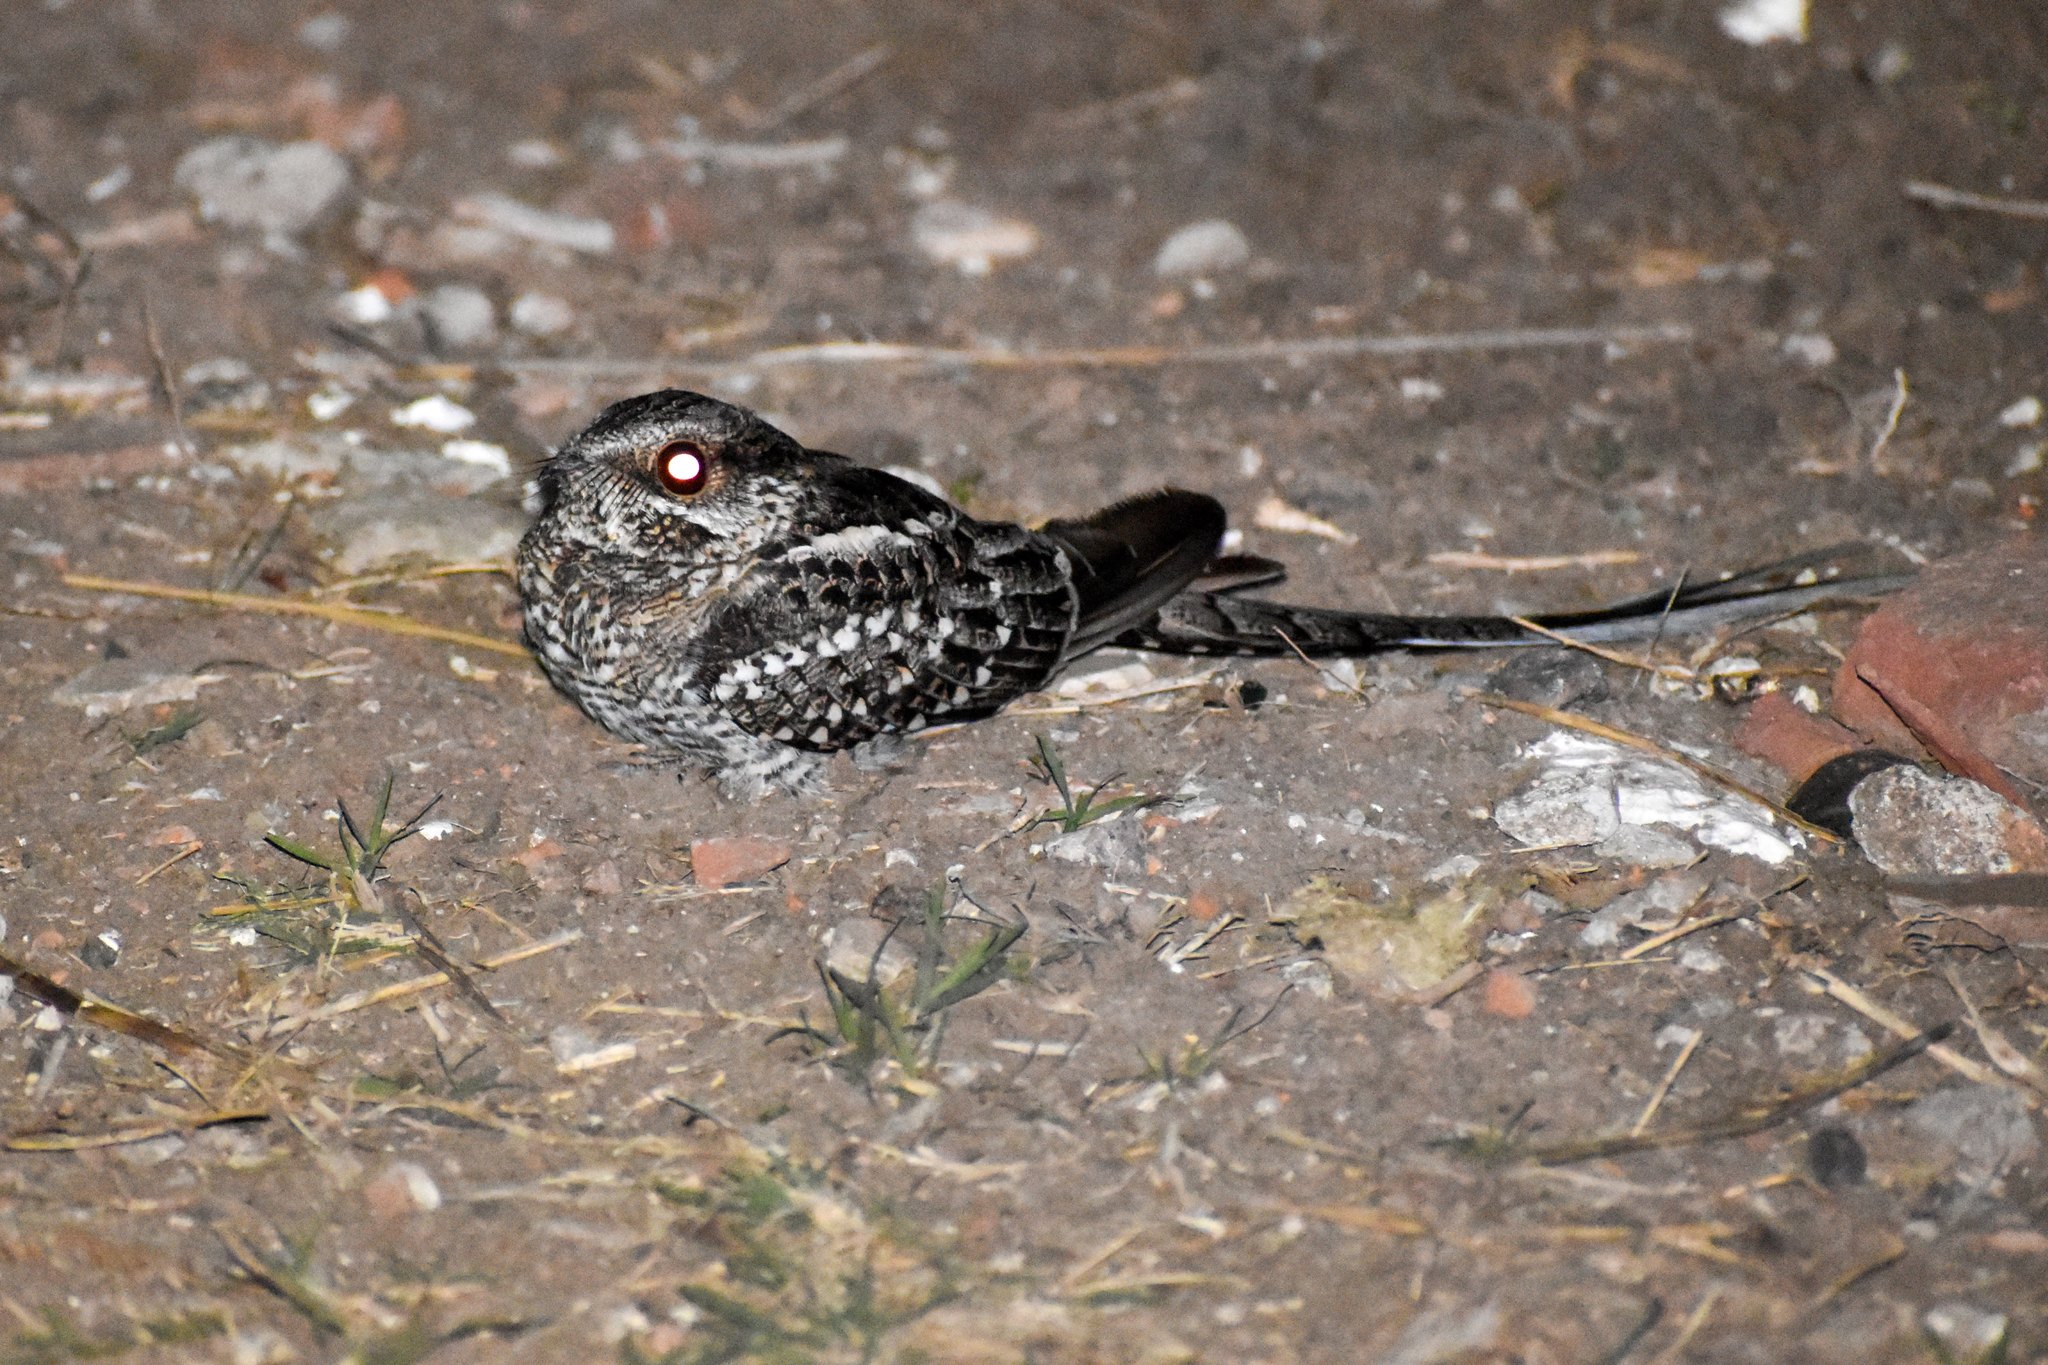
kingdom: Animalia
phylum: Chordata
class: Aves
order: Caprimulgiformes
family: Caprimulgidae
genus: Hydropsalis
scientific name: Hydropsalis torquata
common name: Scissor-tailed nightjar
